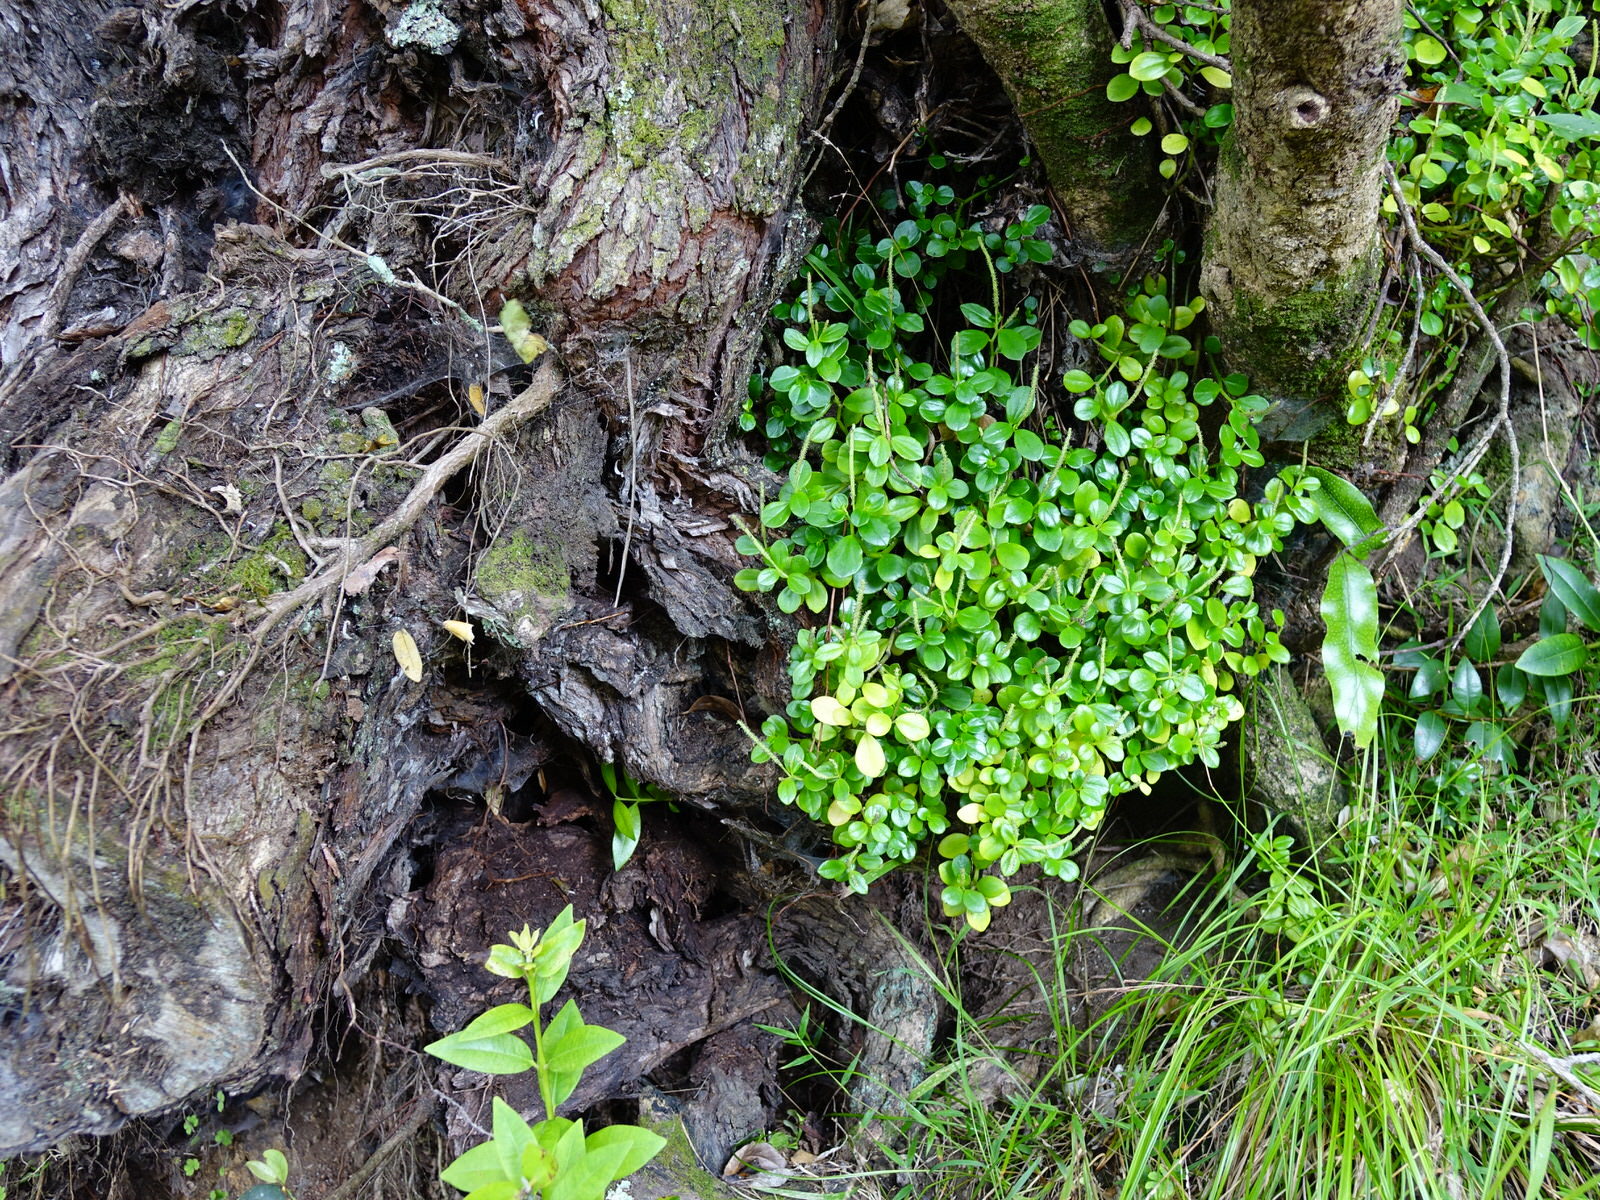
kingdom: Plantae
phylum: Tracheophyta
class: Magnoliopsida
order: Piperales
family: Piperaceae
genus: Peperomia
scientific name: Peperomia urvilleana
